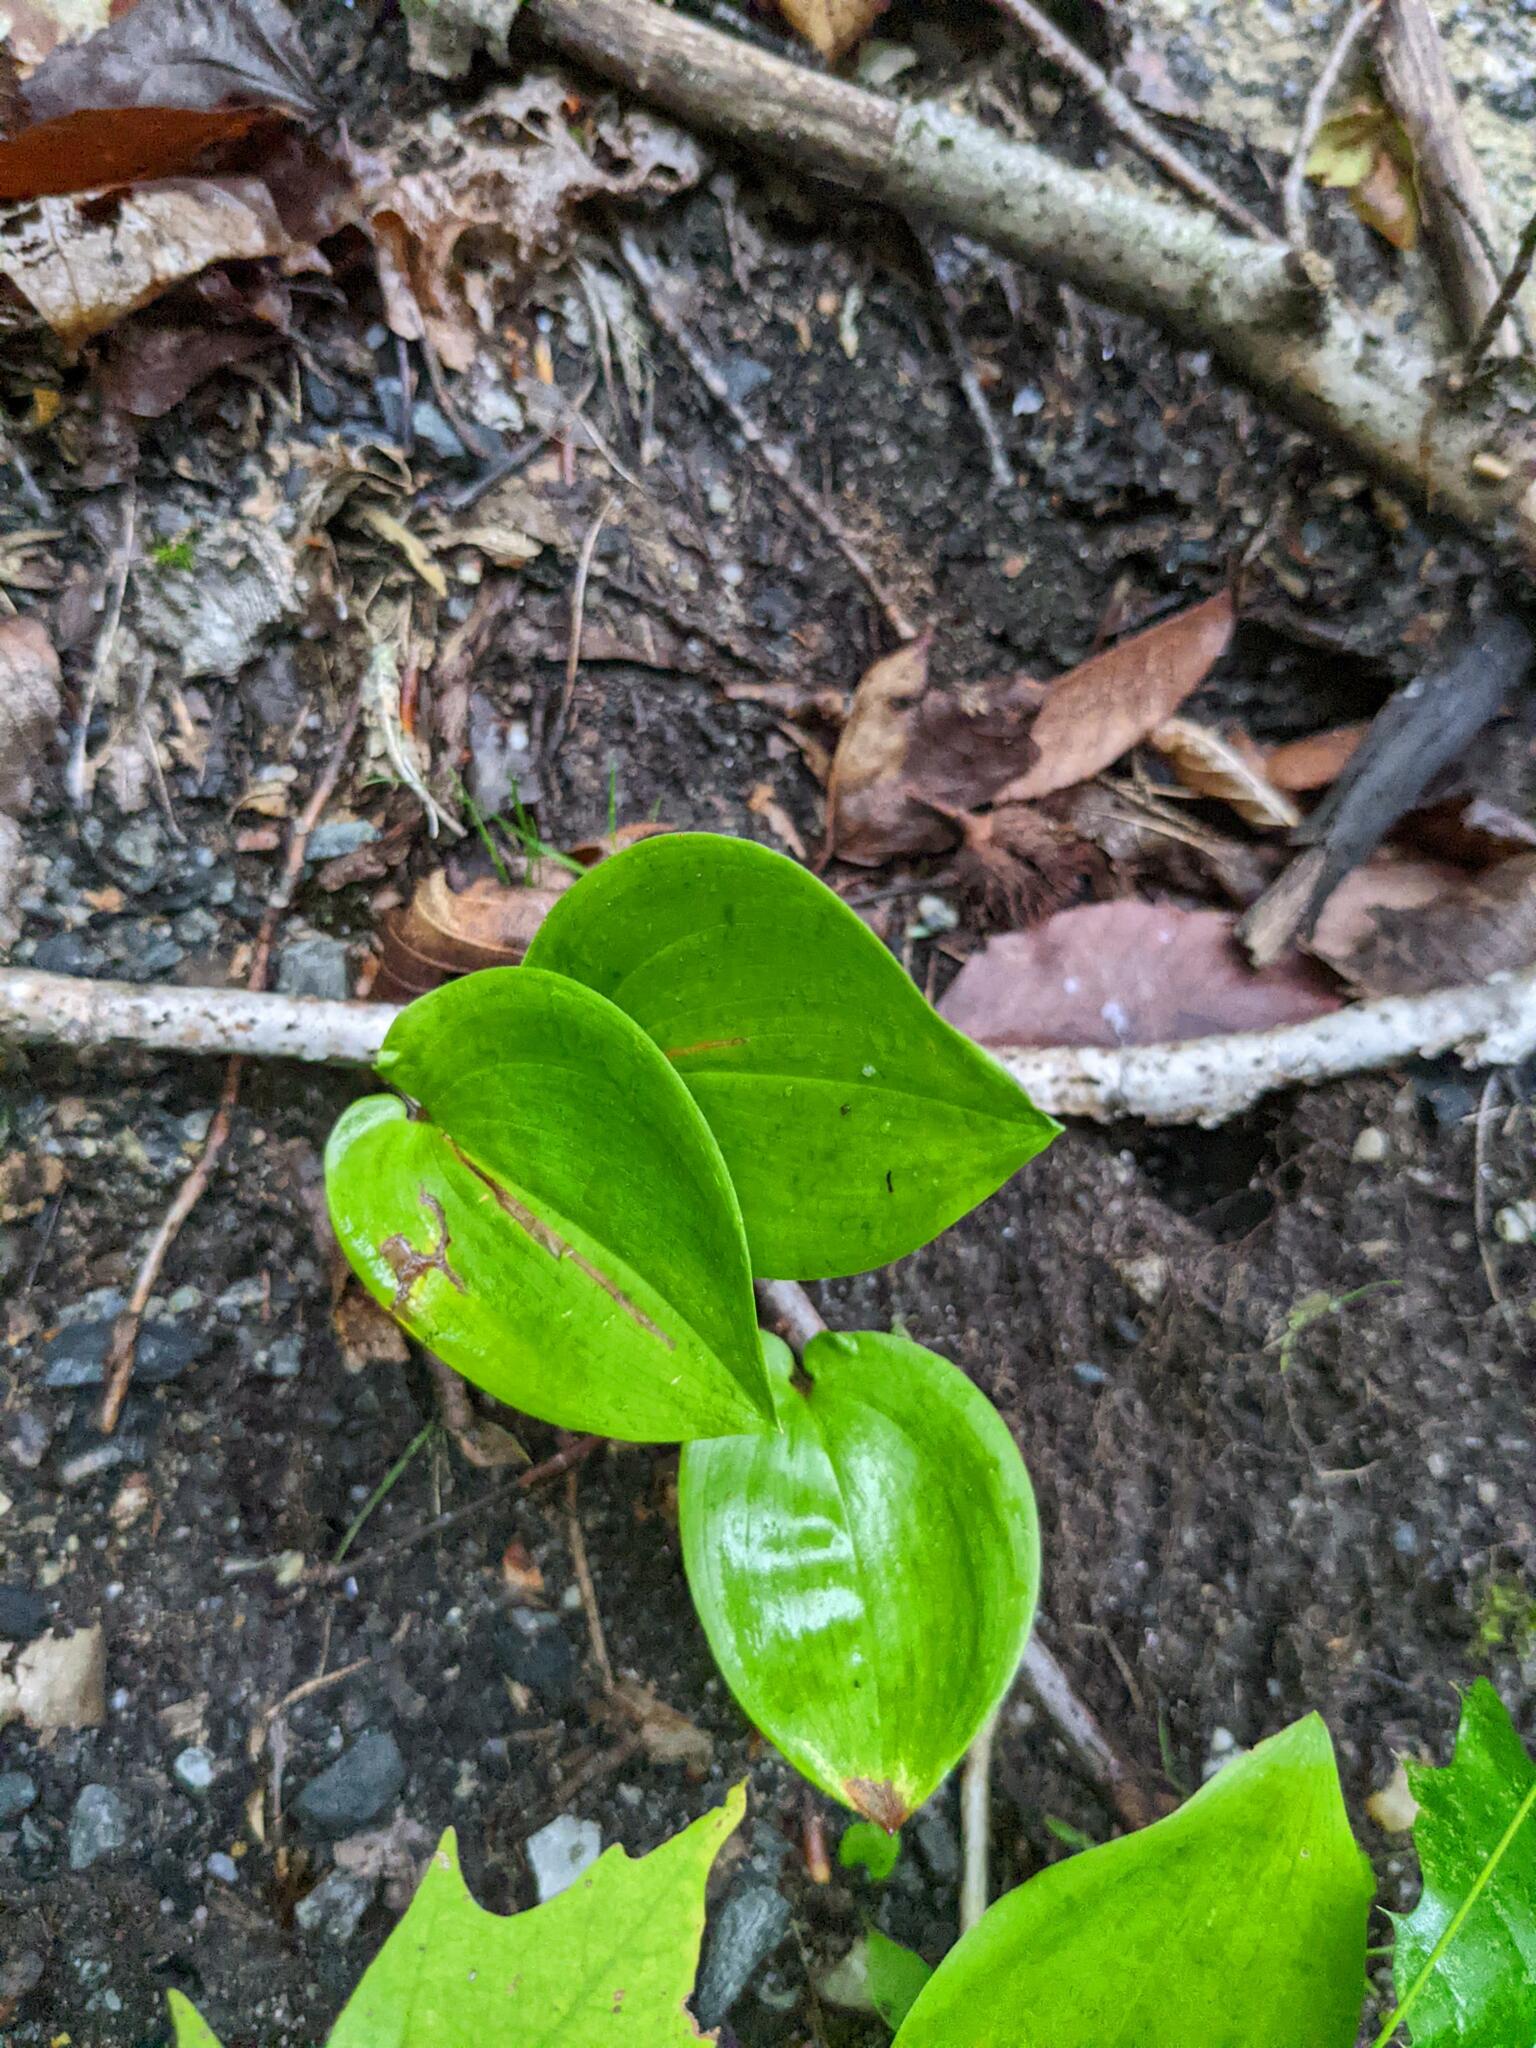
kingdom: Plantae
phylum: Tracheophyta
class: Liliopsida
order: Asparagales
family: Asparagaceae
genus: Maianthemum
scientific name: Maianthemum canadense
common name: False lily-of-the-valley
